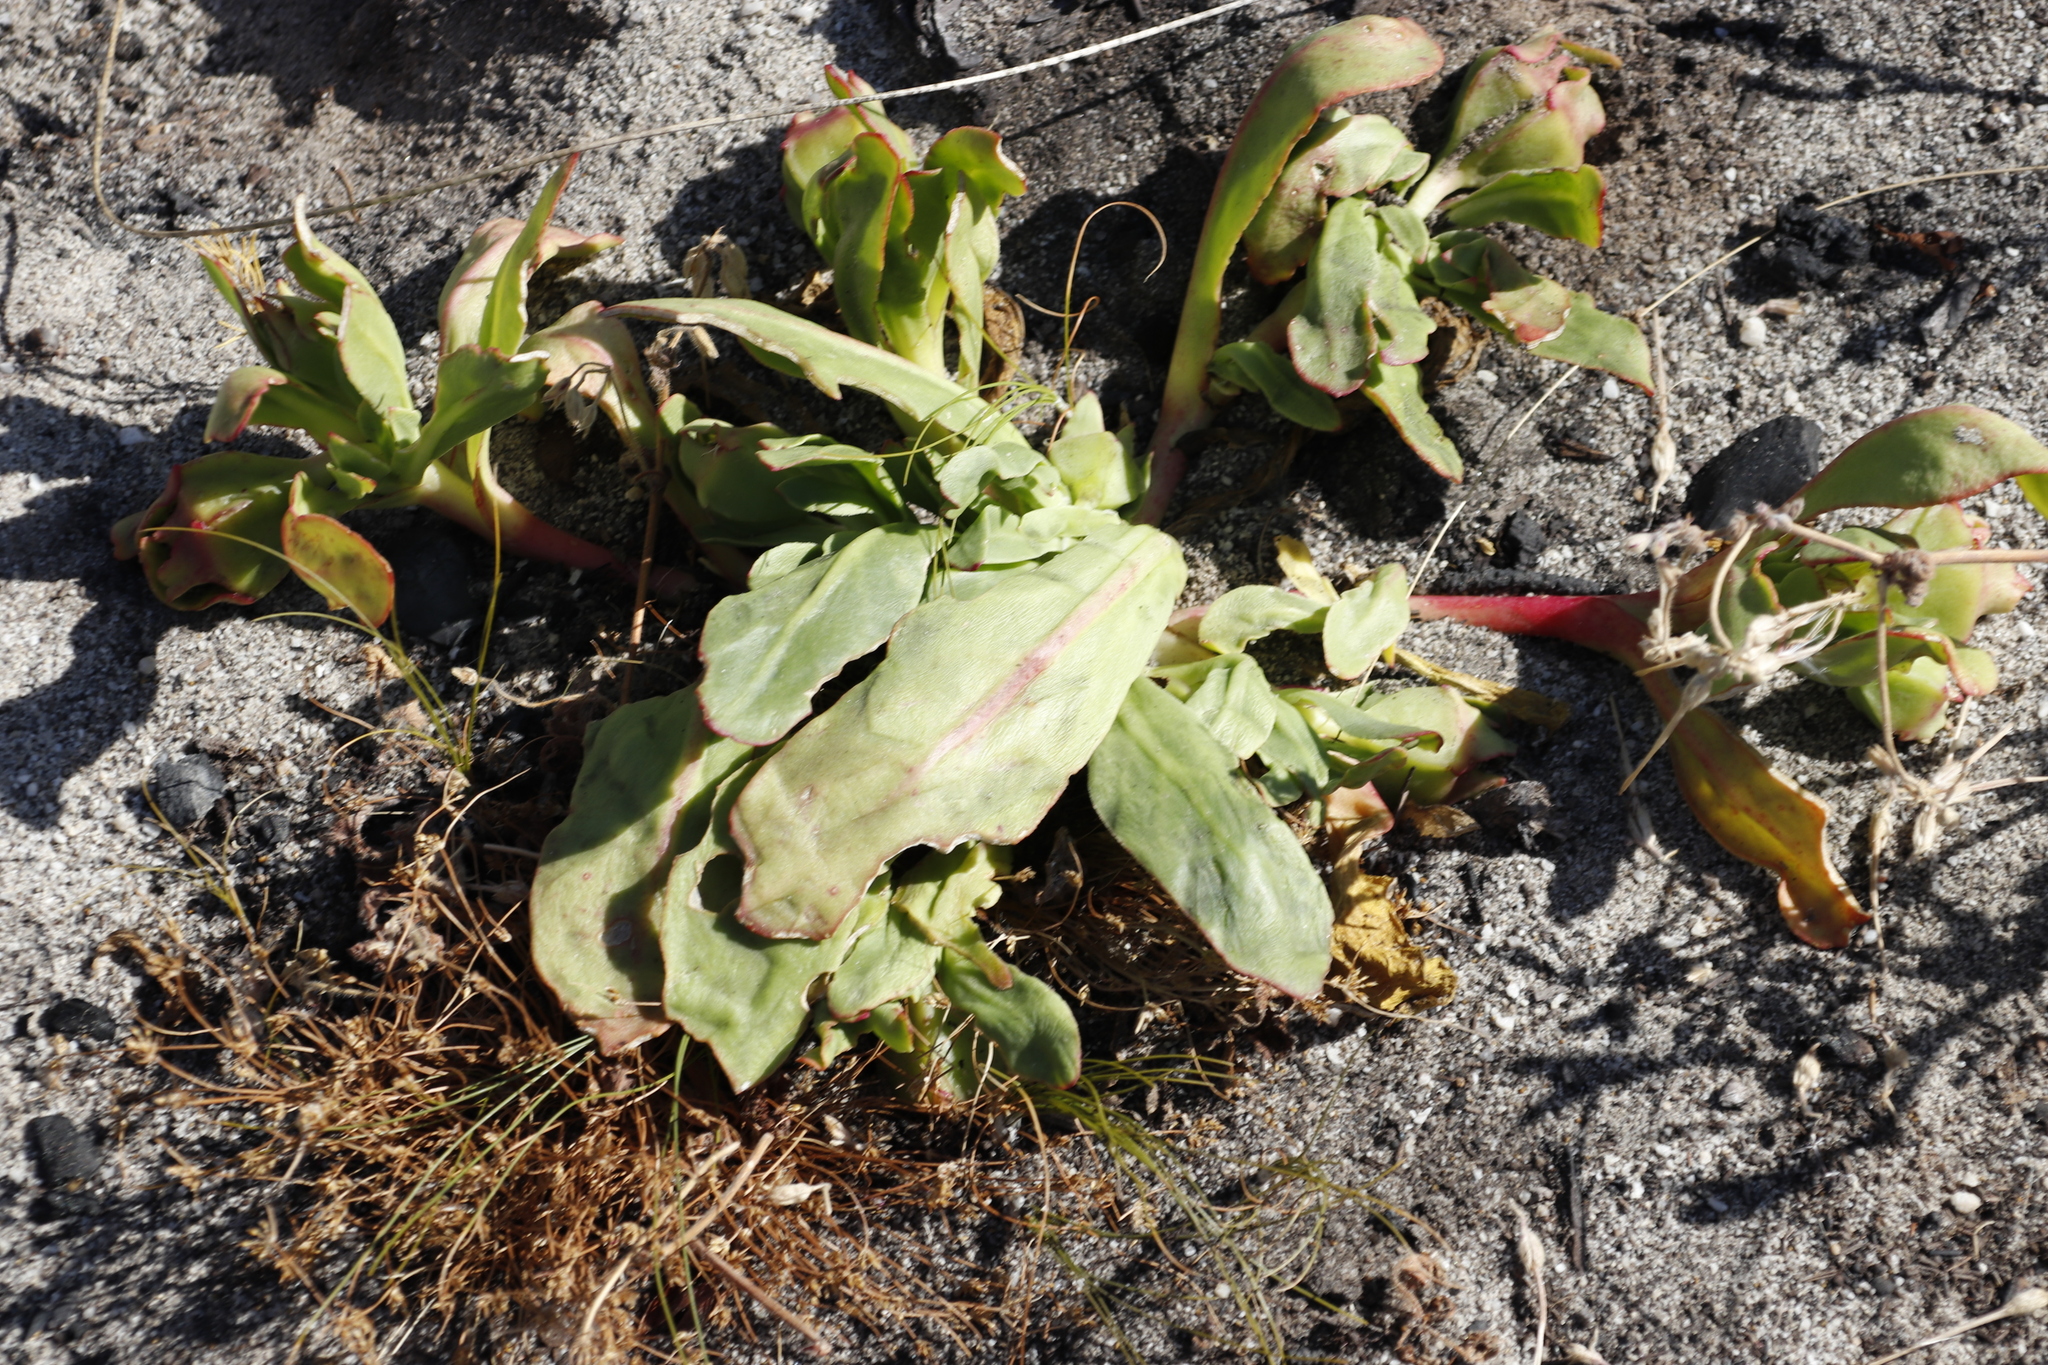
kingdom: Plantae
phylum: Tracheophyta
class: Magnoliopsida
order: Caryophyllales
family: Aizoaceae
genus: Skiatophytum
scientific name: Skiatophytum tripolium
